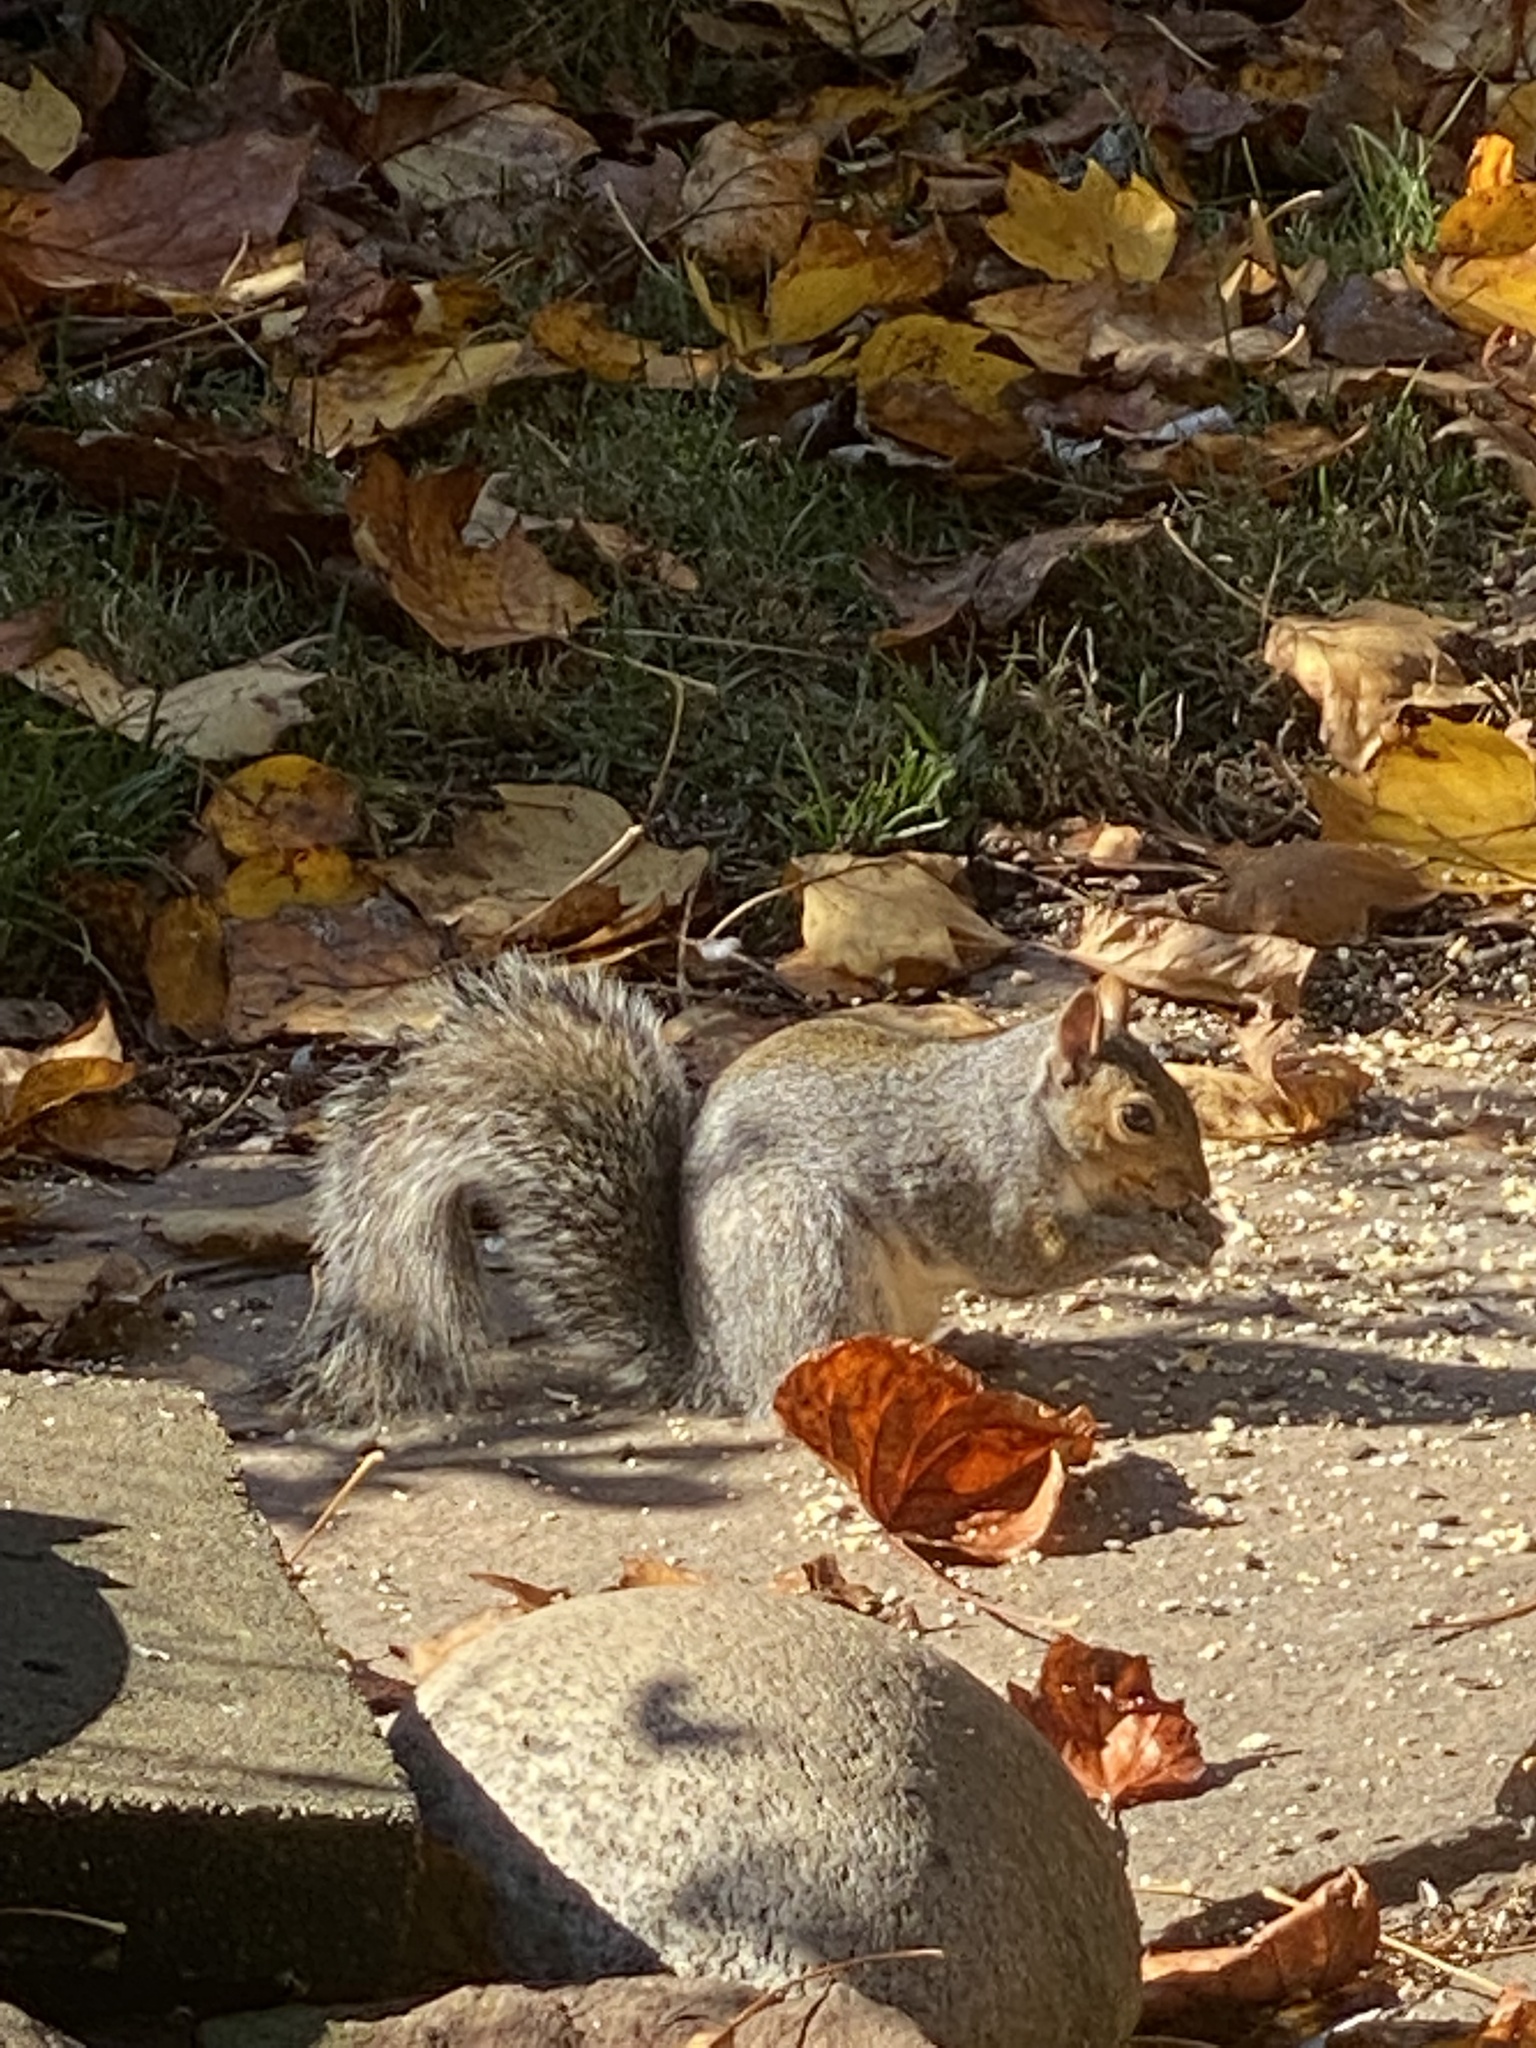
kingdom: Animalia
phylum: Chordata
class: Mammalia
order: Rodentia
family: Sciuridae
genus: Sciurus
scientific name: Sciurus carolinensis
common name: Eastern gray squirrel
